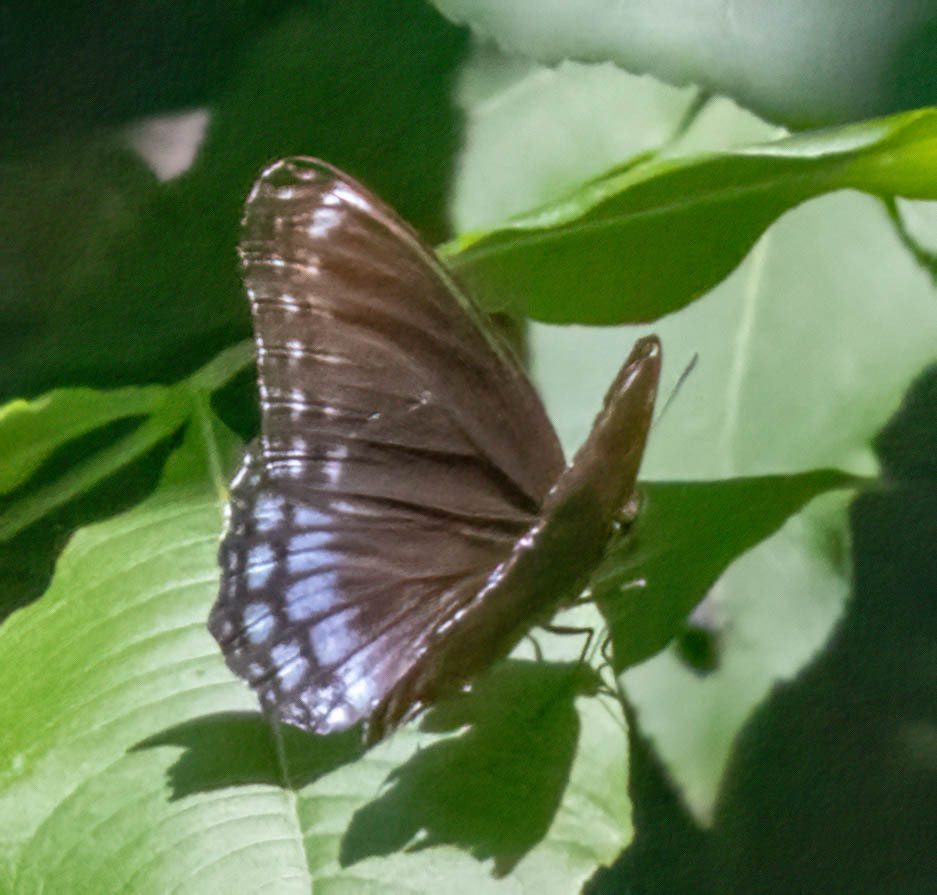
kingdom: Animalia
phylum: Arthropoda
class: Insecta
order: Lepidoptera
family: Nymphalidae
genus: Limenitis
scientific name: Limenitis astyanax
